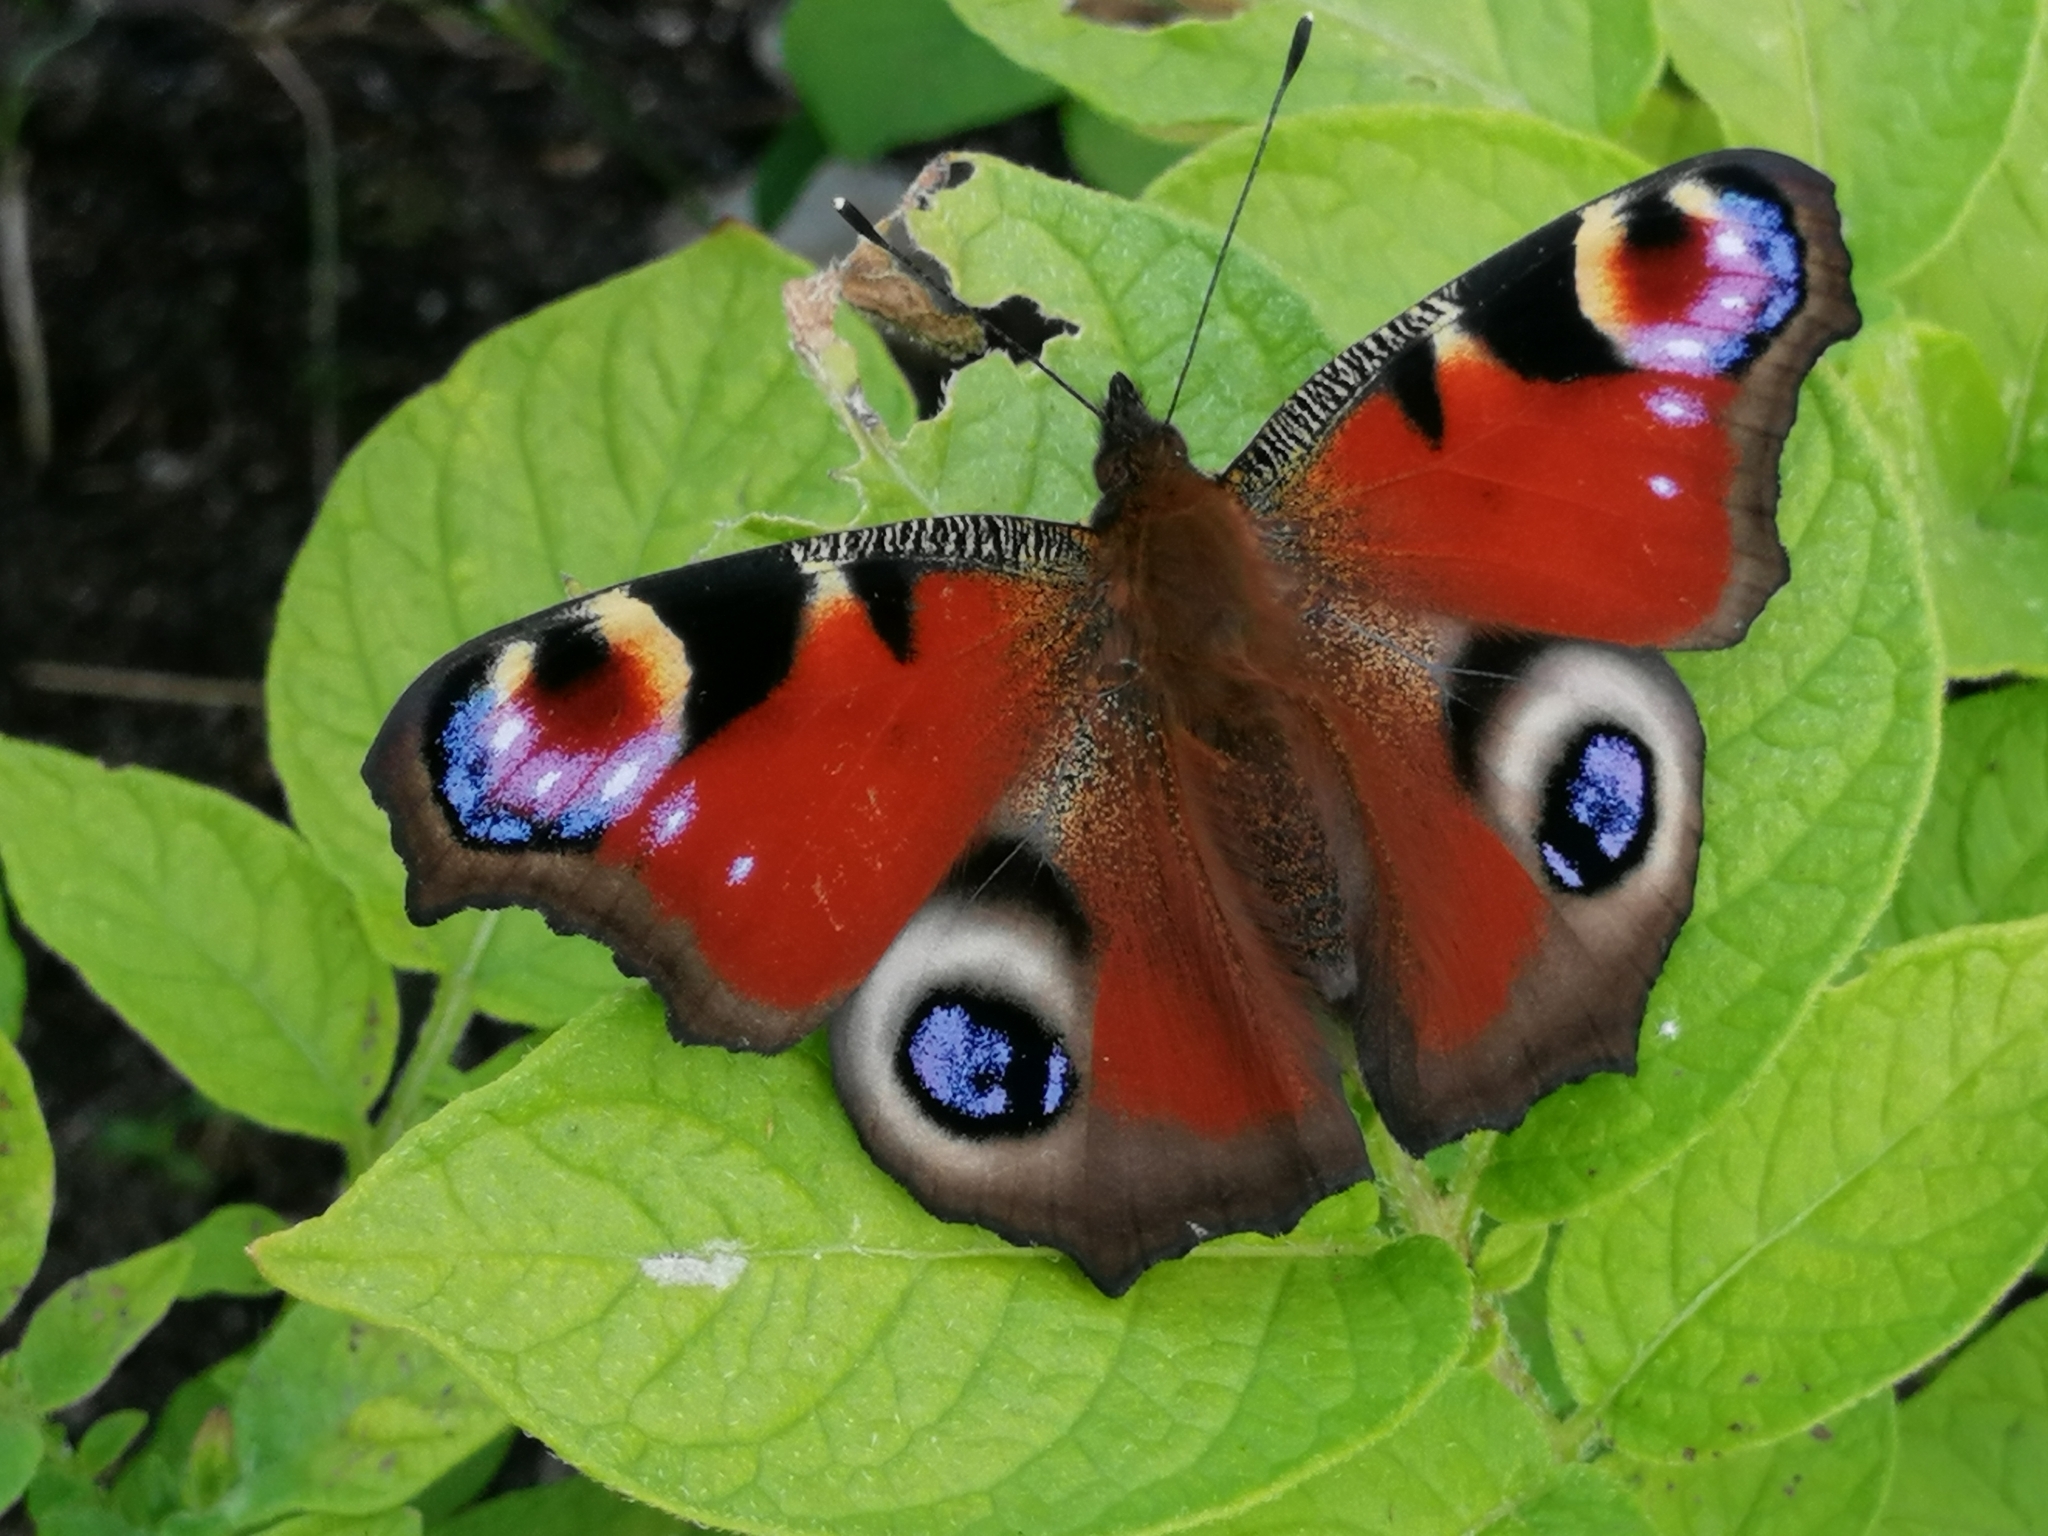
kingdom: Animalia
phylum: Arthropoda
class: Insecta
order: Lepidoptera
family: Nymphalidae
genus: Aglais
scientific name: Aglais io
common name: Peacock
